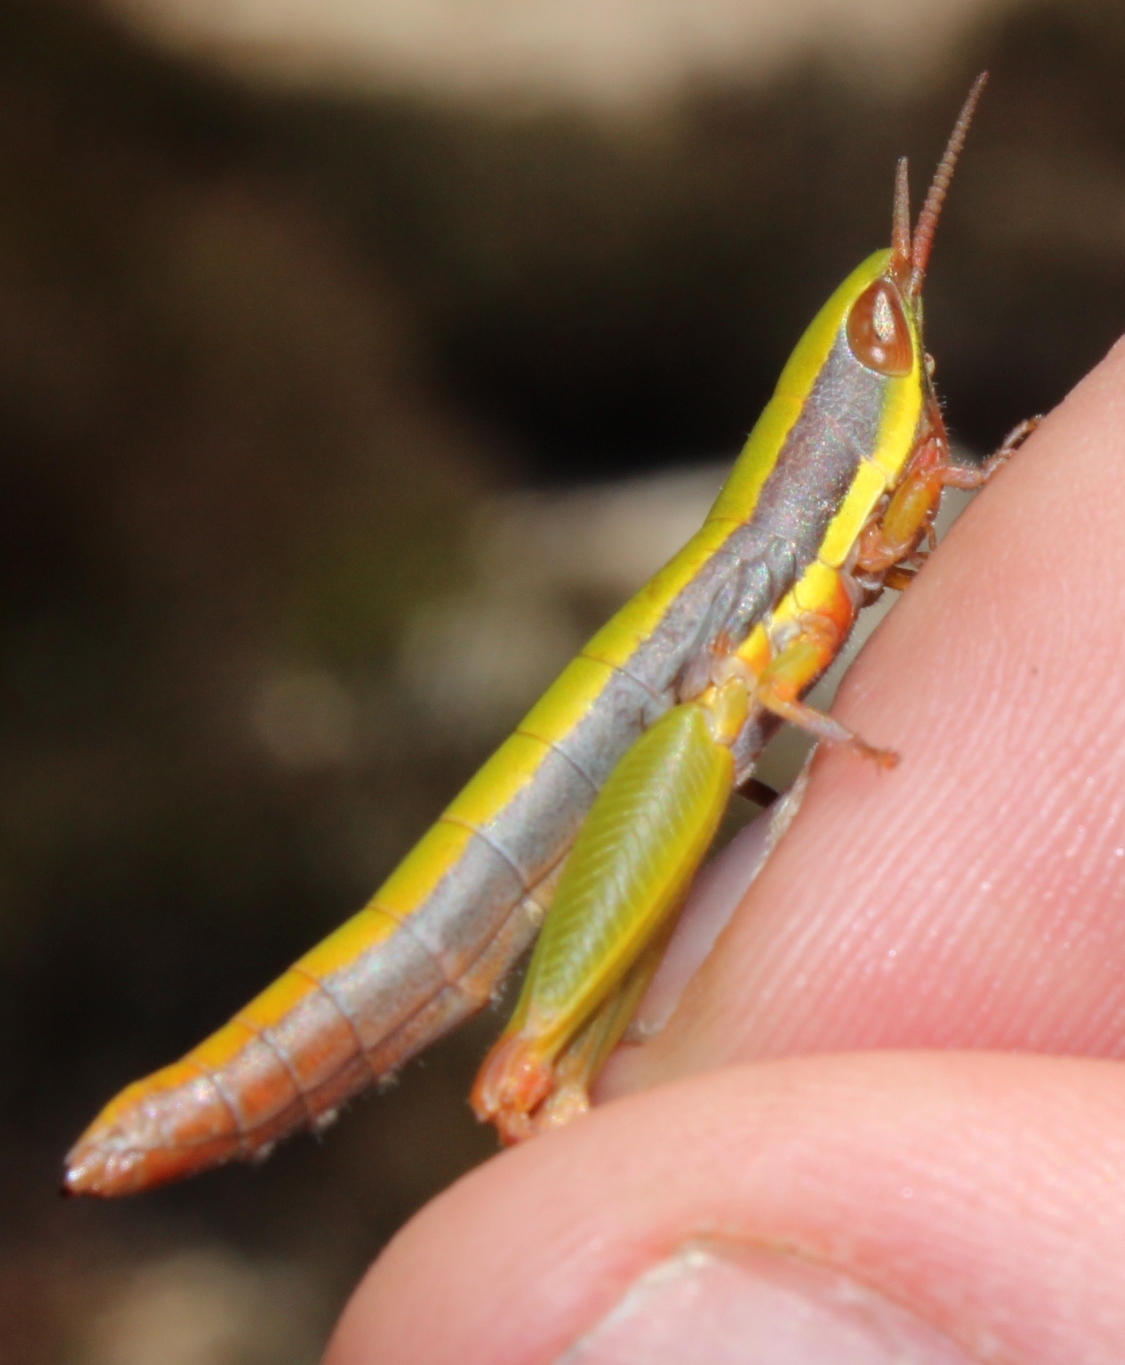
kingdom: Animalia
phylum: Arthropoda
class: Insecta
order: Orthoptera
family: Lentulidae
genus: Betiscoides
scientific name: Betiscoides parva
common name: Small restio grasshopper
